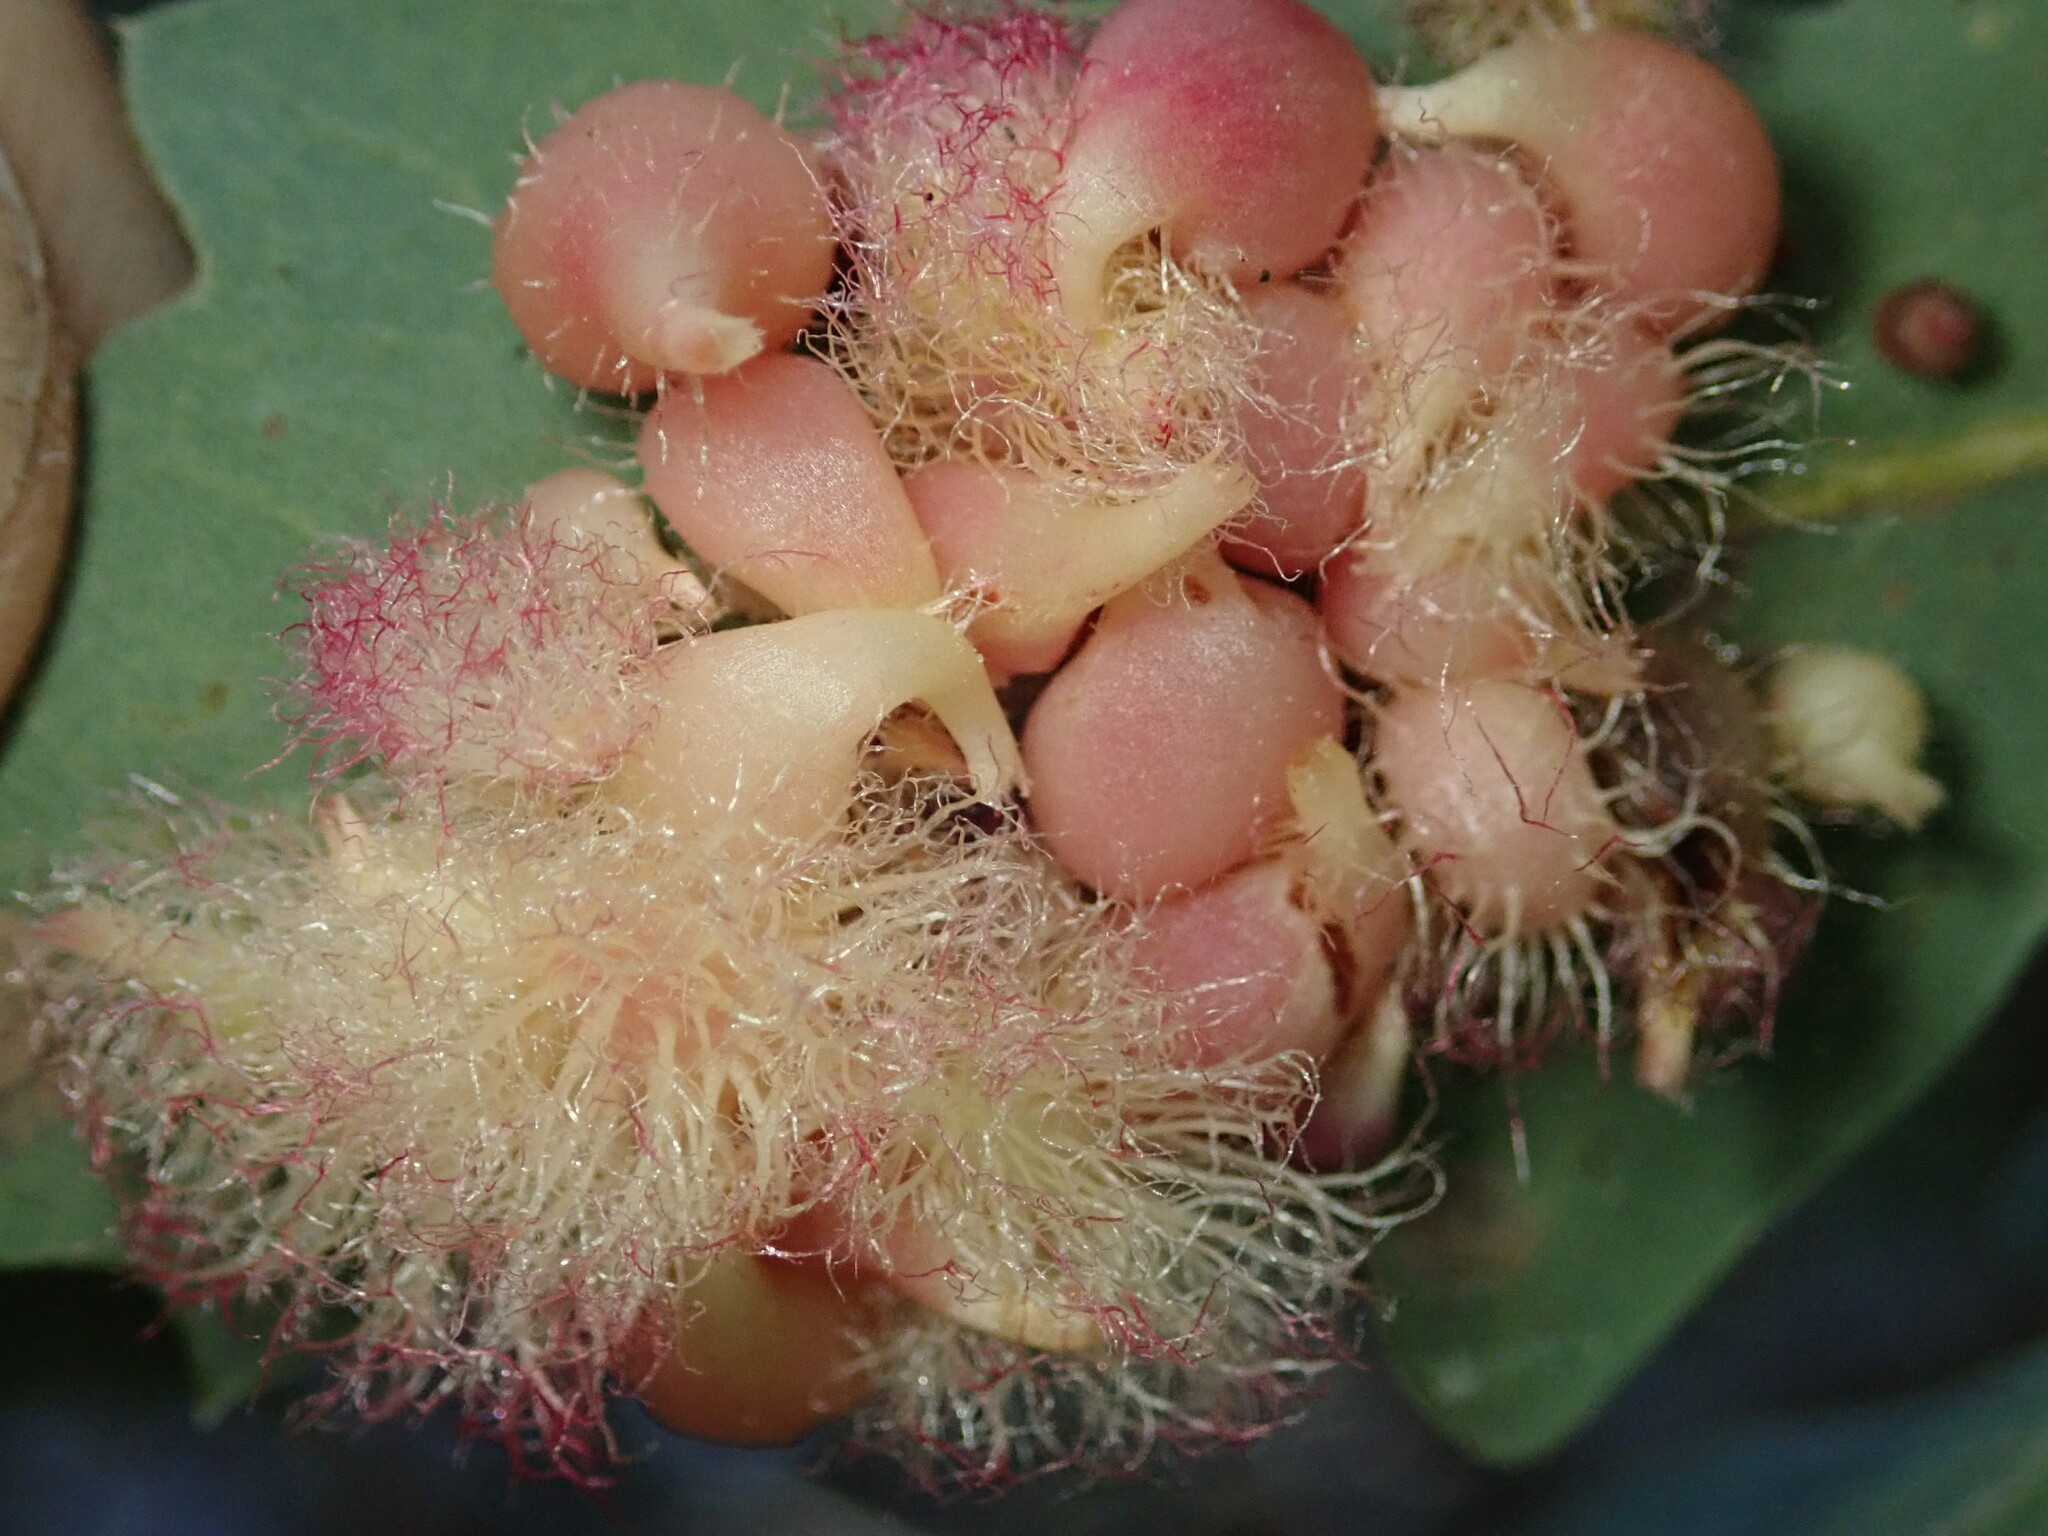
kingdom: Animalia
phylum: Arthropoda
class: Insecta
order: Hymenoptera
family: Cynipidae
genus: Andricus
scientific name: Andricus
